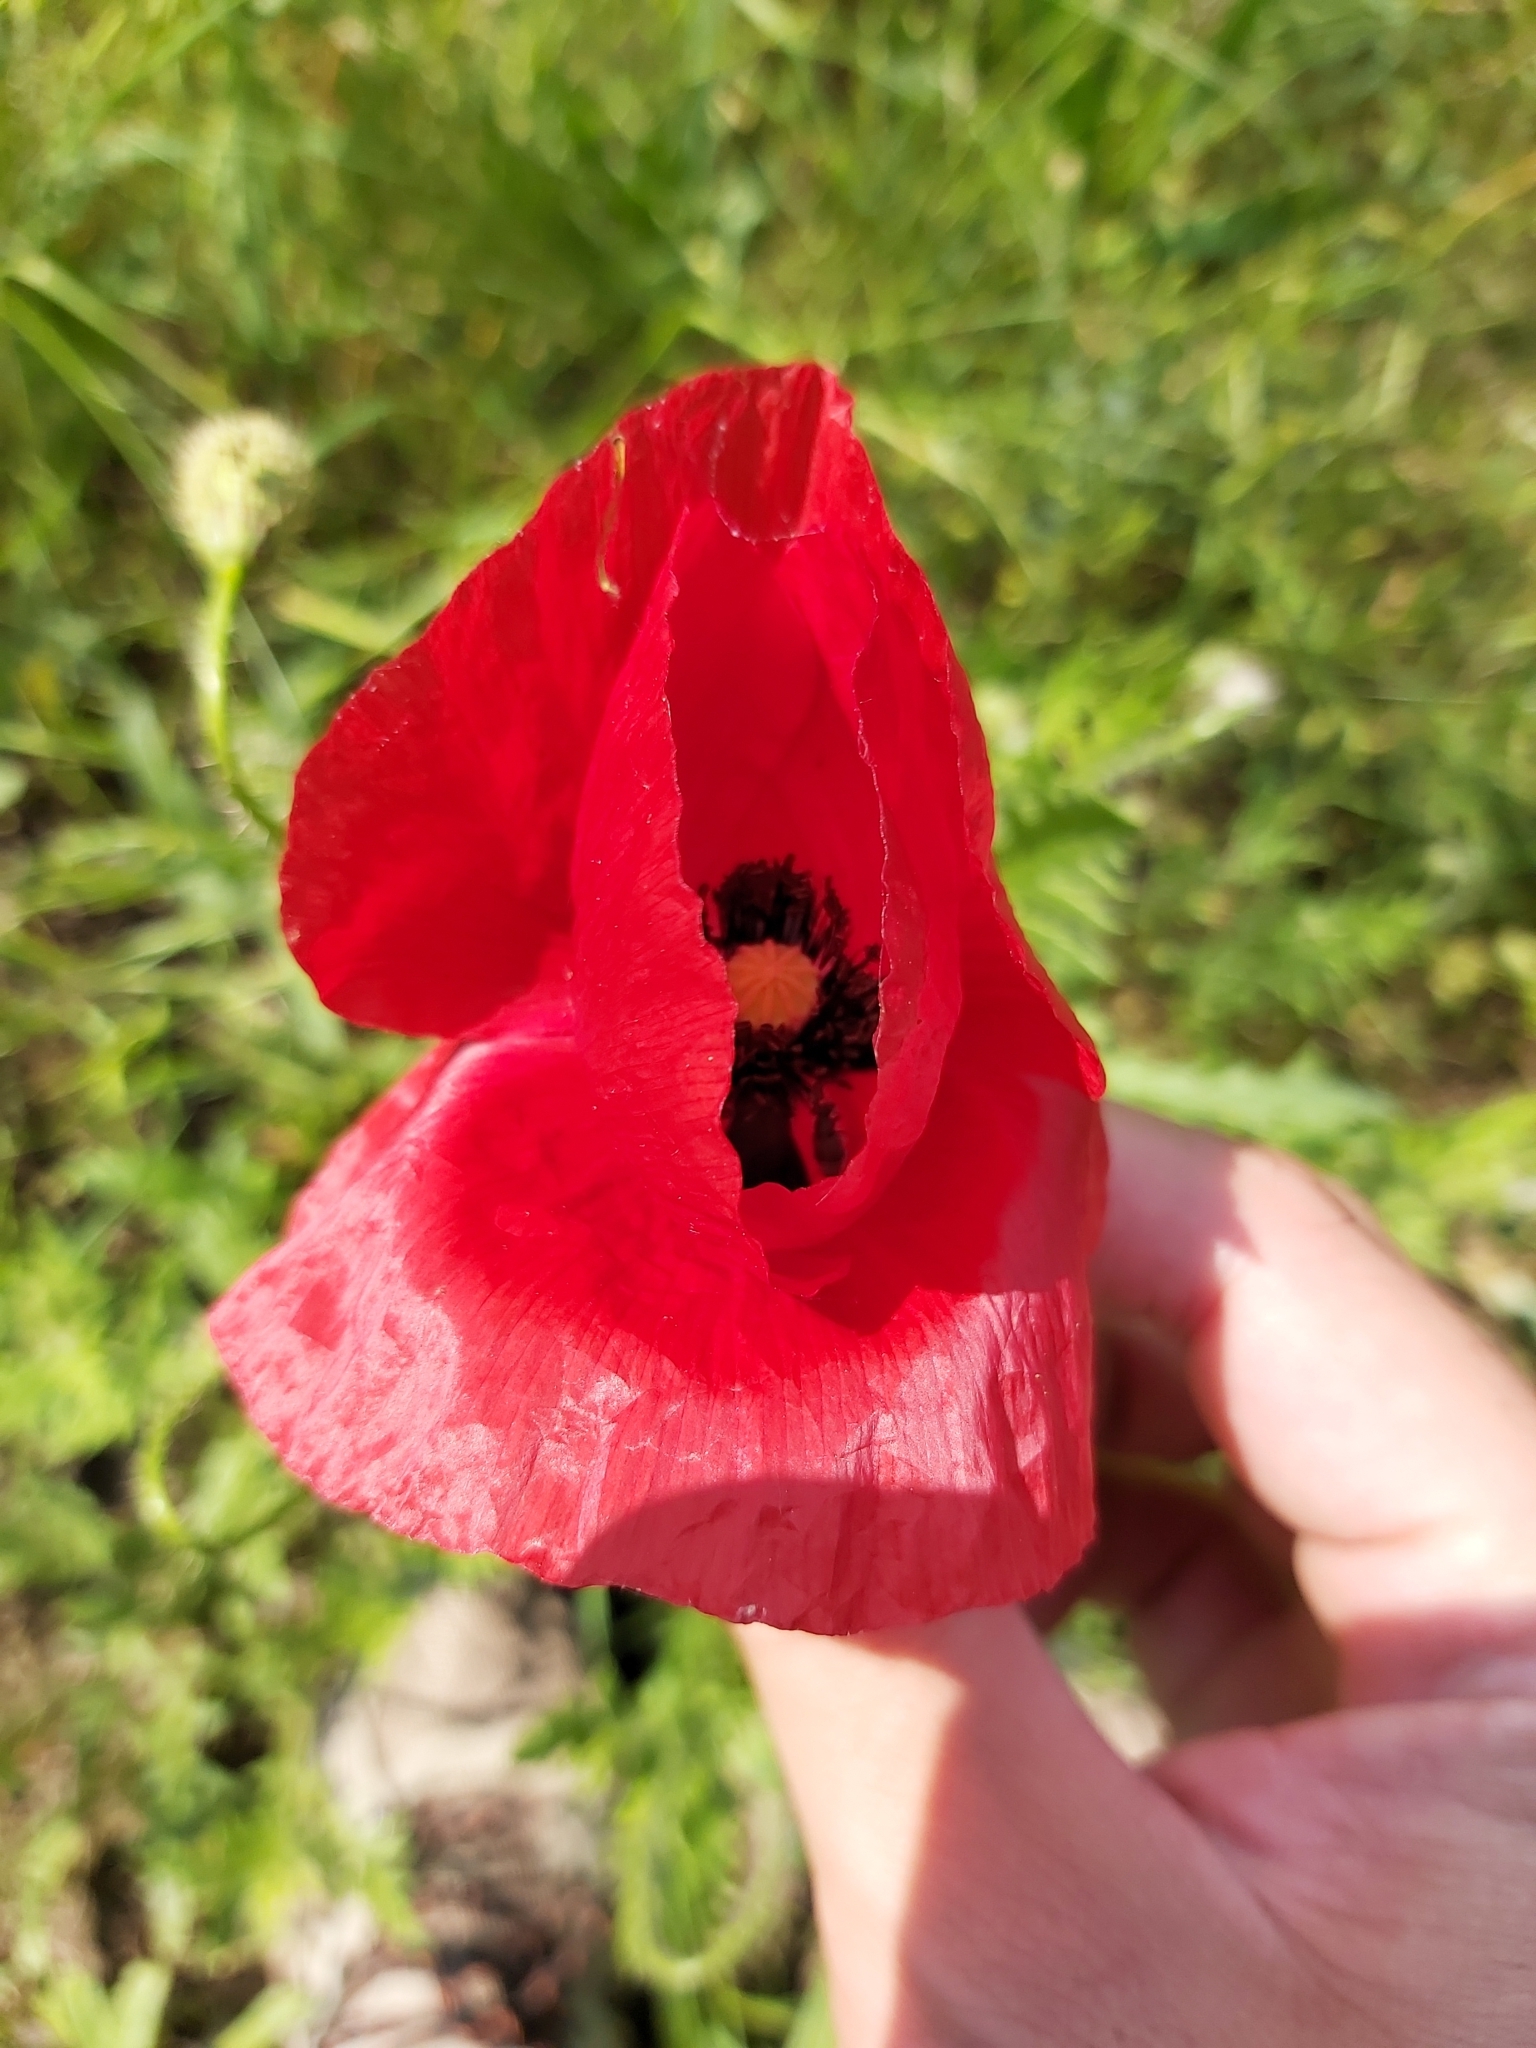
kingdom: Plantae
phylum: Tracheophyta
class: Magnoliopsida
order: Ranunculales
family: Papaveraceae
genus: Papaver
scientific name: Papaver rhoeas
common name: Corn poppy
